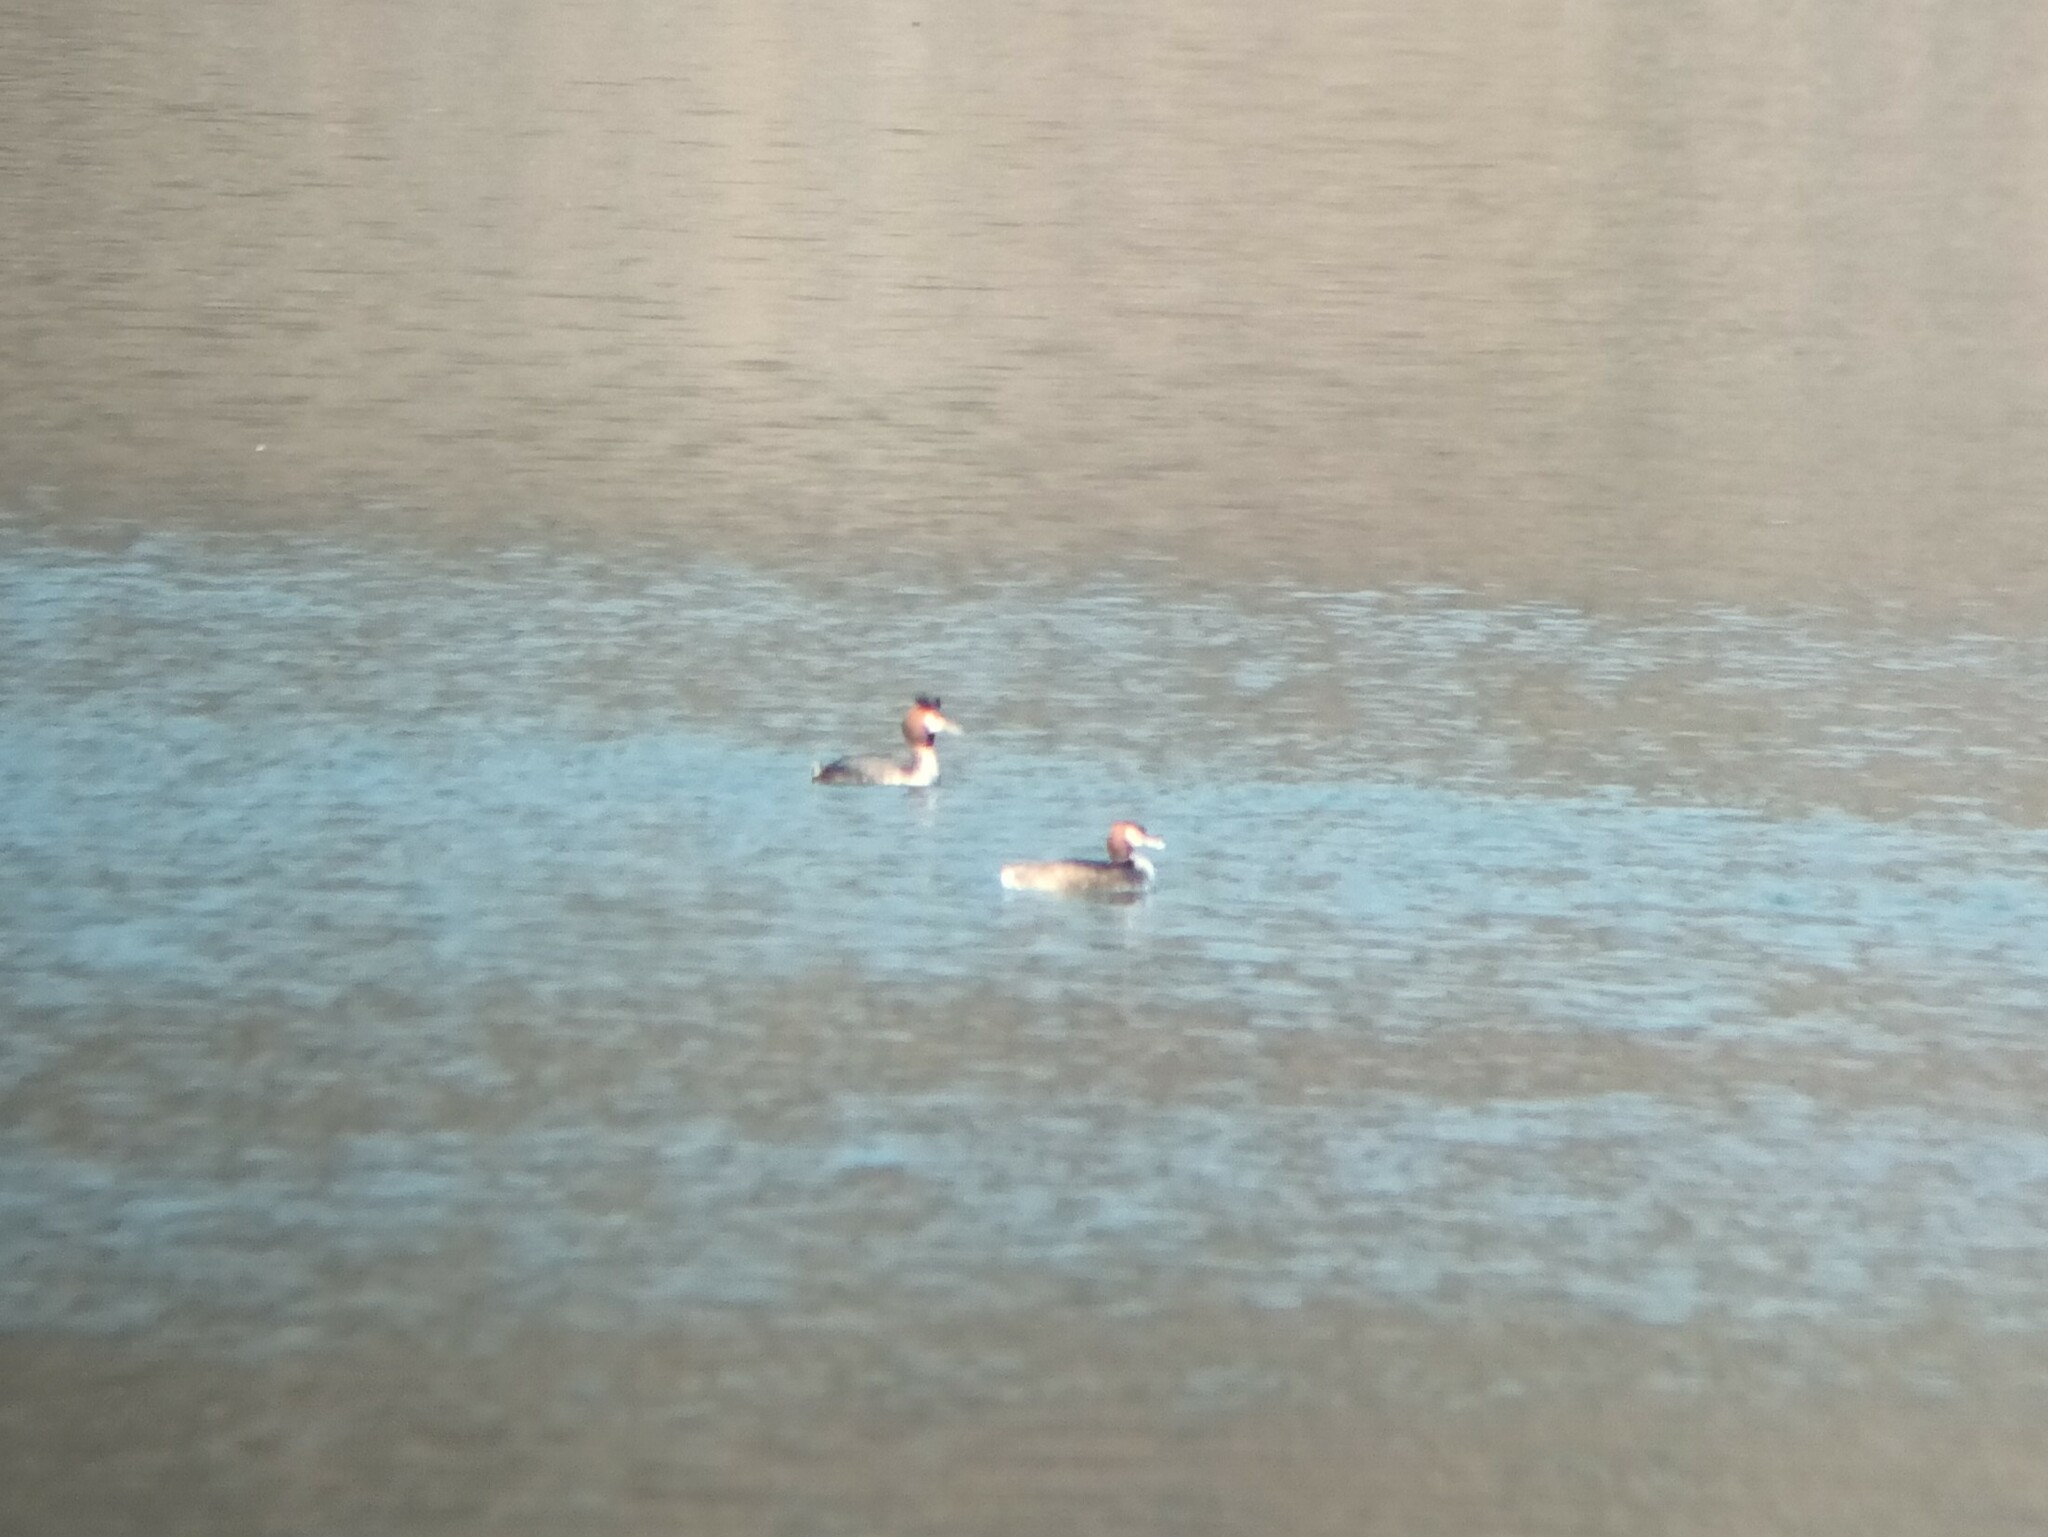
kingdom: Animalia
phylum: Chordata
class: Aves
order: Podicipediformes
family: Podicipedidae
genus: Podiceps
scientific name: Podiceps cristatus
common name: Great crested grebe
